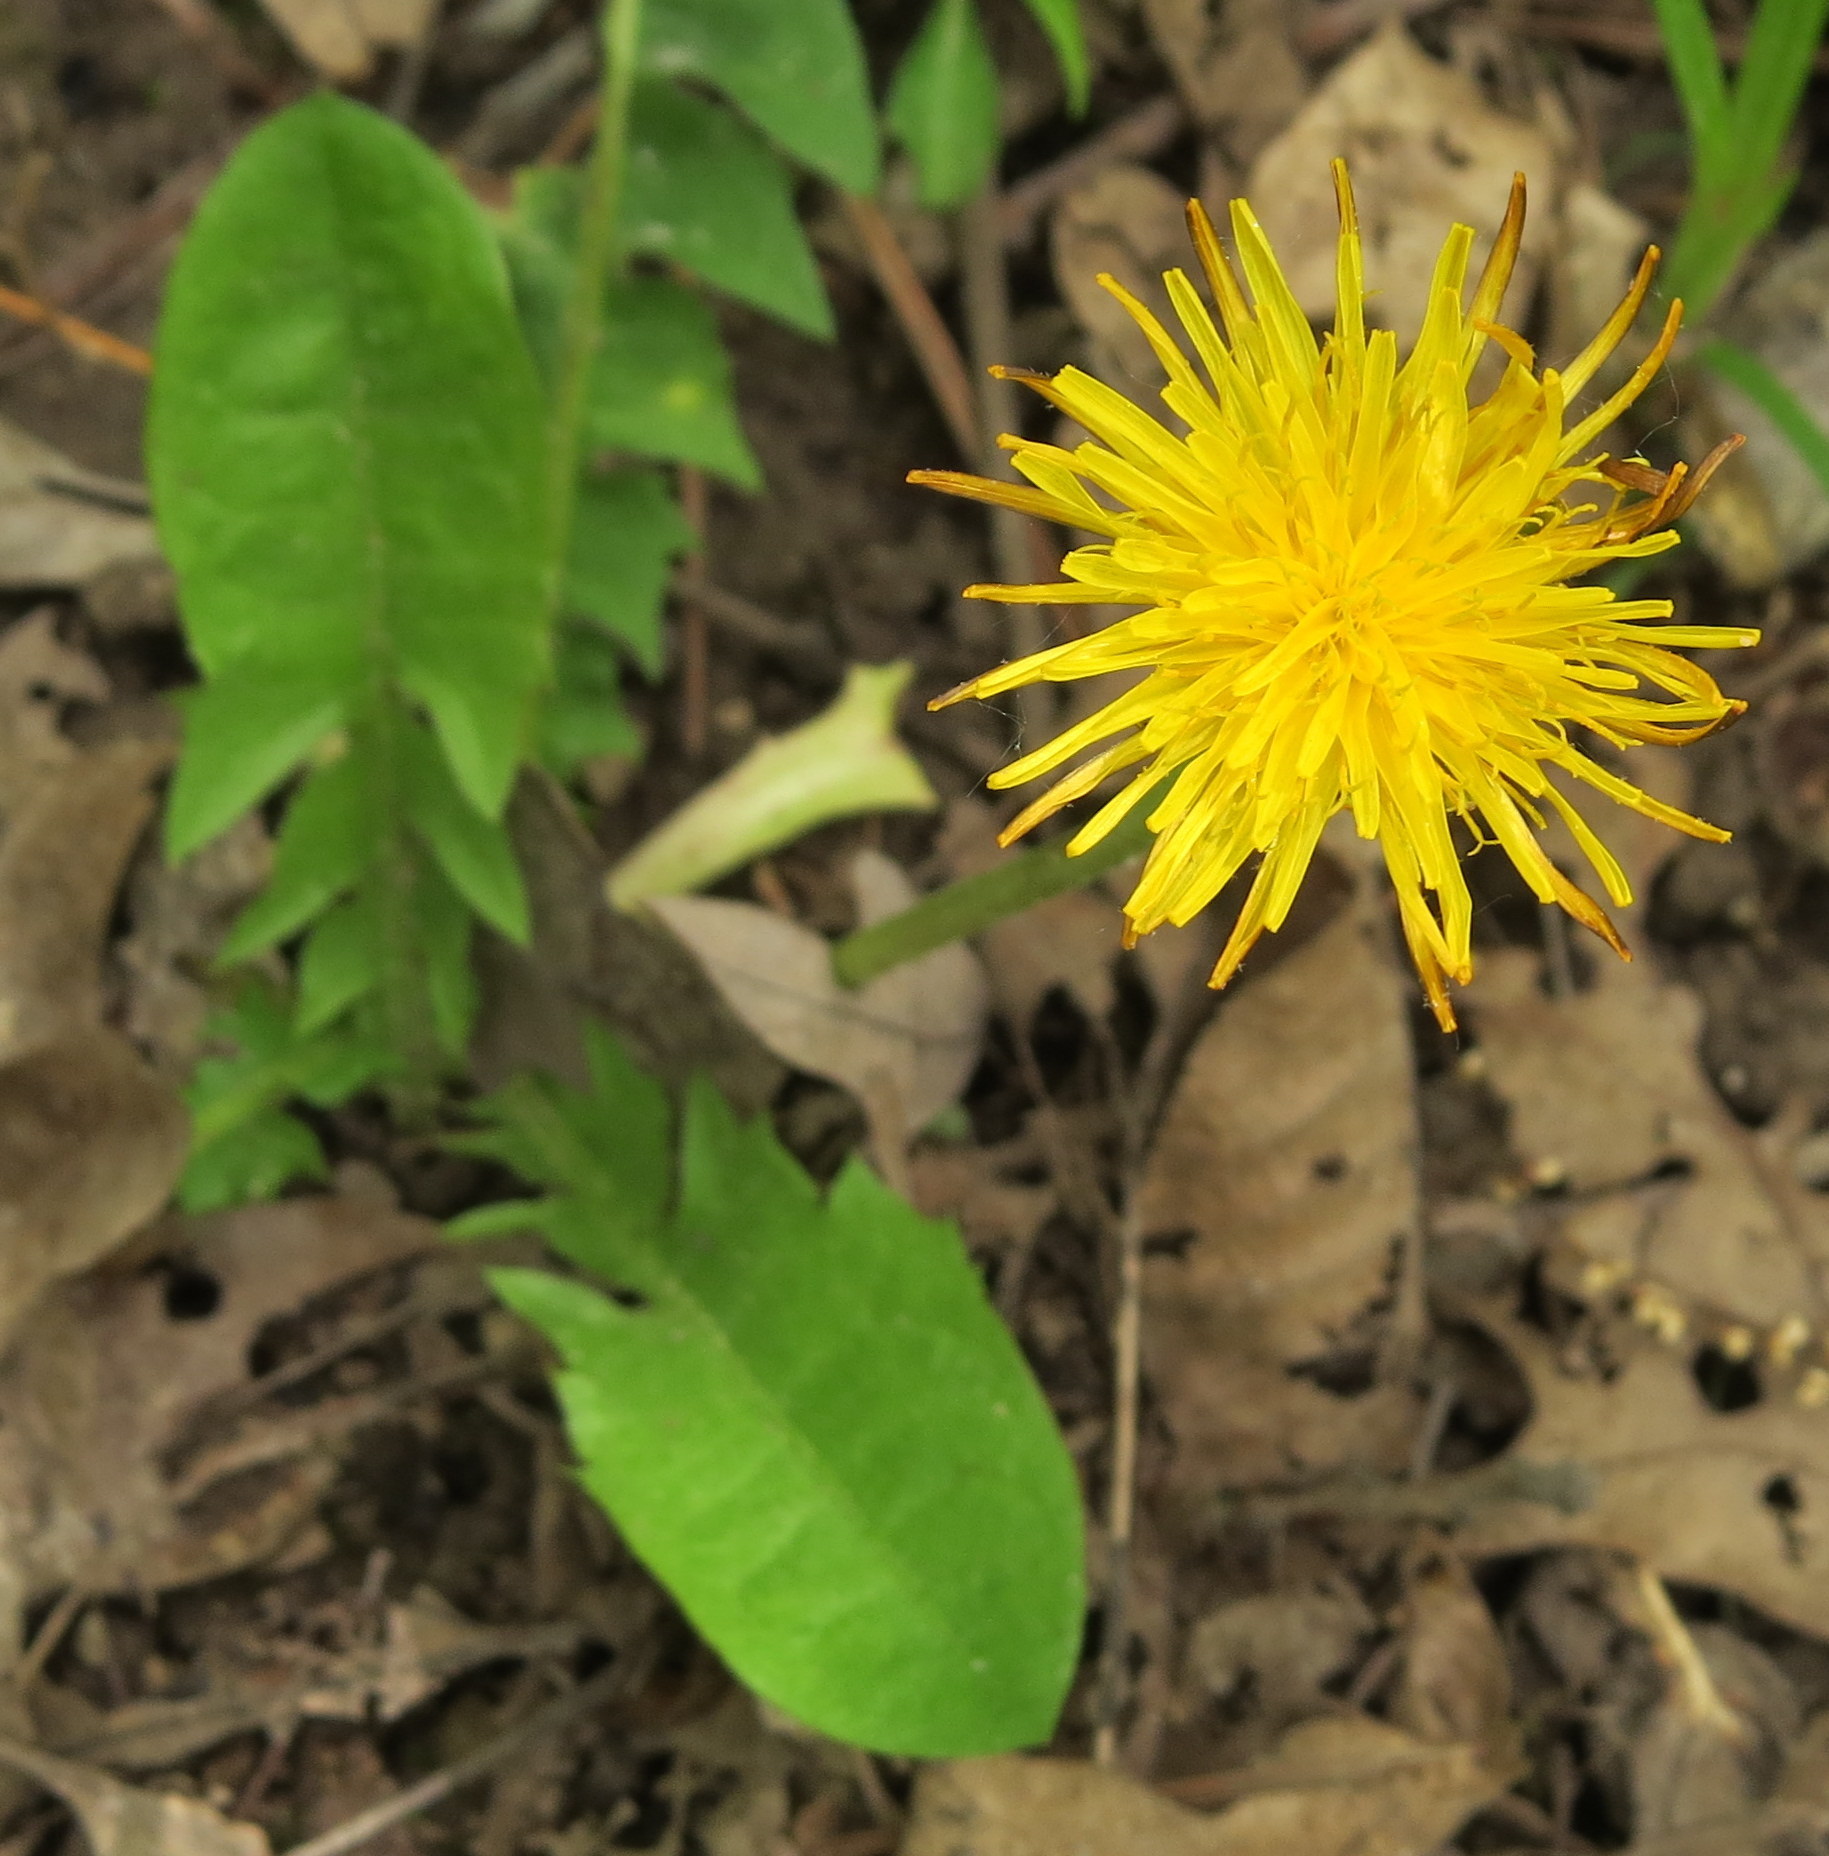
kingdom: Plantae
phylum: Tracheophyta
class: Magnoliopsida
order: Asterales
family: Asteraceae
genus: Taraxacum
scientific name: Taraxacum officinale
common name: Common dandelion
